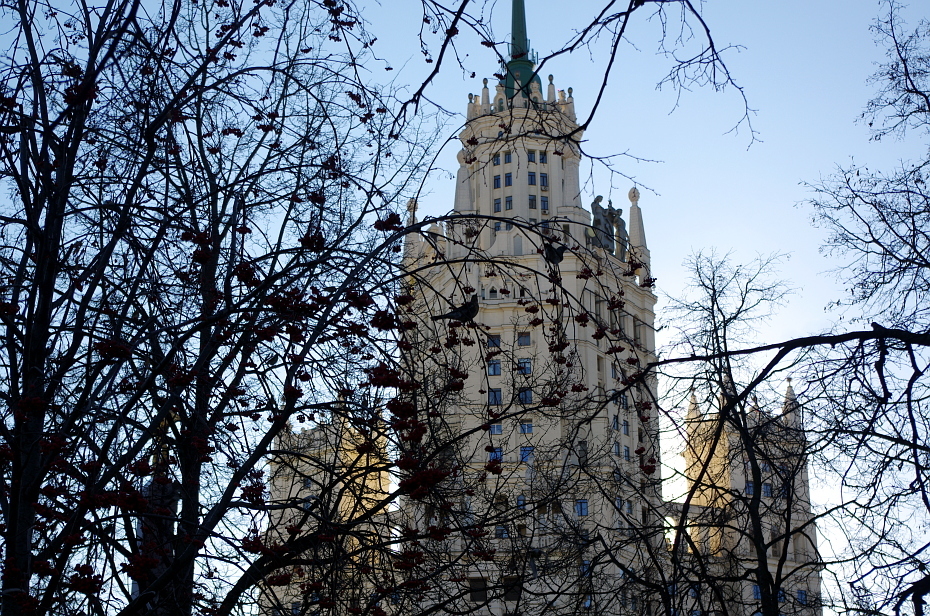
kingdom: Animalia
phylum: Chordata
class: Aves
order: Passeriformes
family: Turdidae
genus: Turdus
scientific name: Turdus pilaris
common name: Fieldfare
